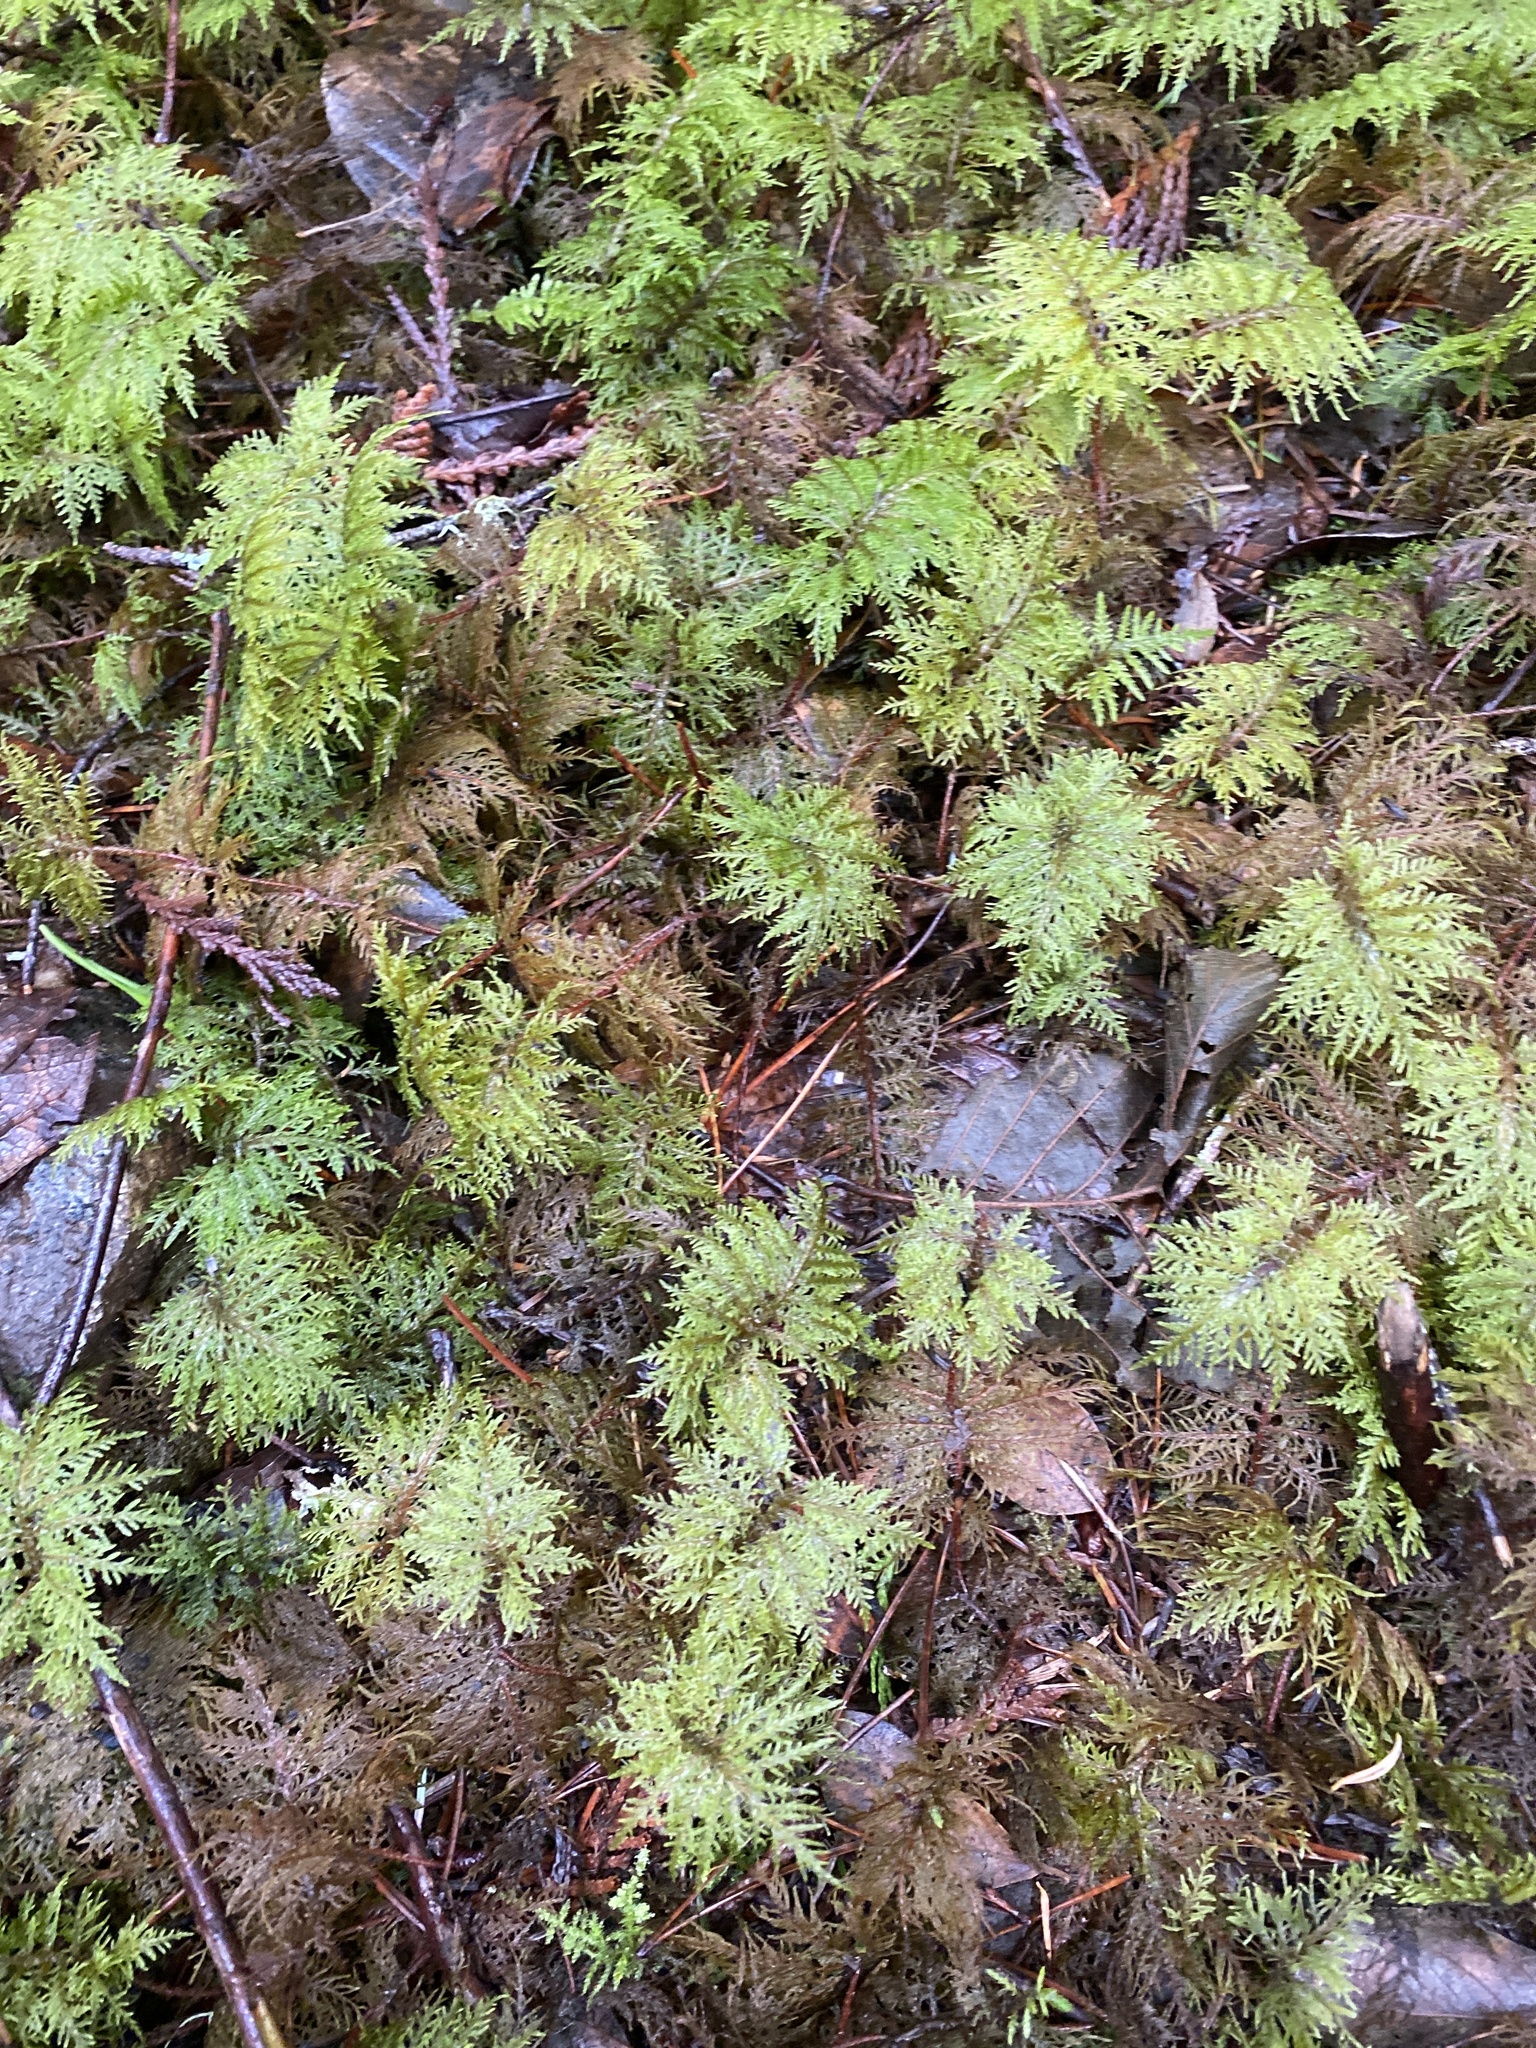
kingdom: Plantae
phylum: Bryophyta
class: Bryopsida
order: Hypnales
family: Hylocomiaceae
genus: Hylocomium
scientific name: Hylocomium splendens
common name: Stairstep moss
